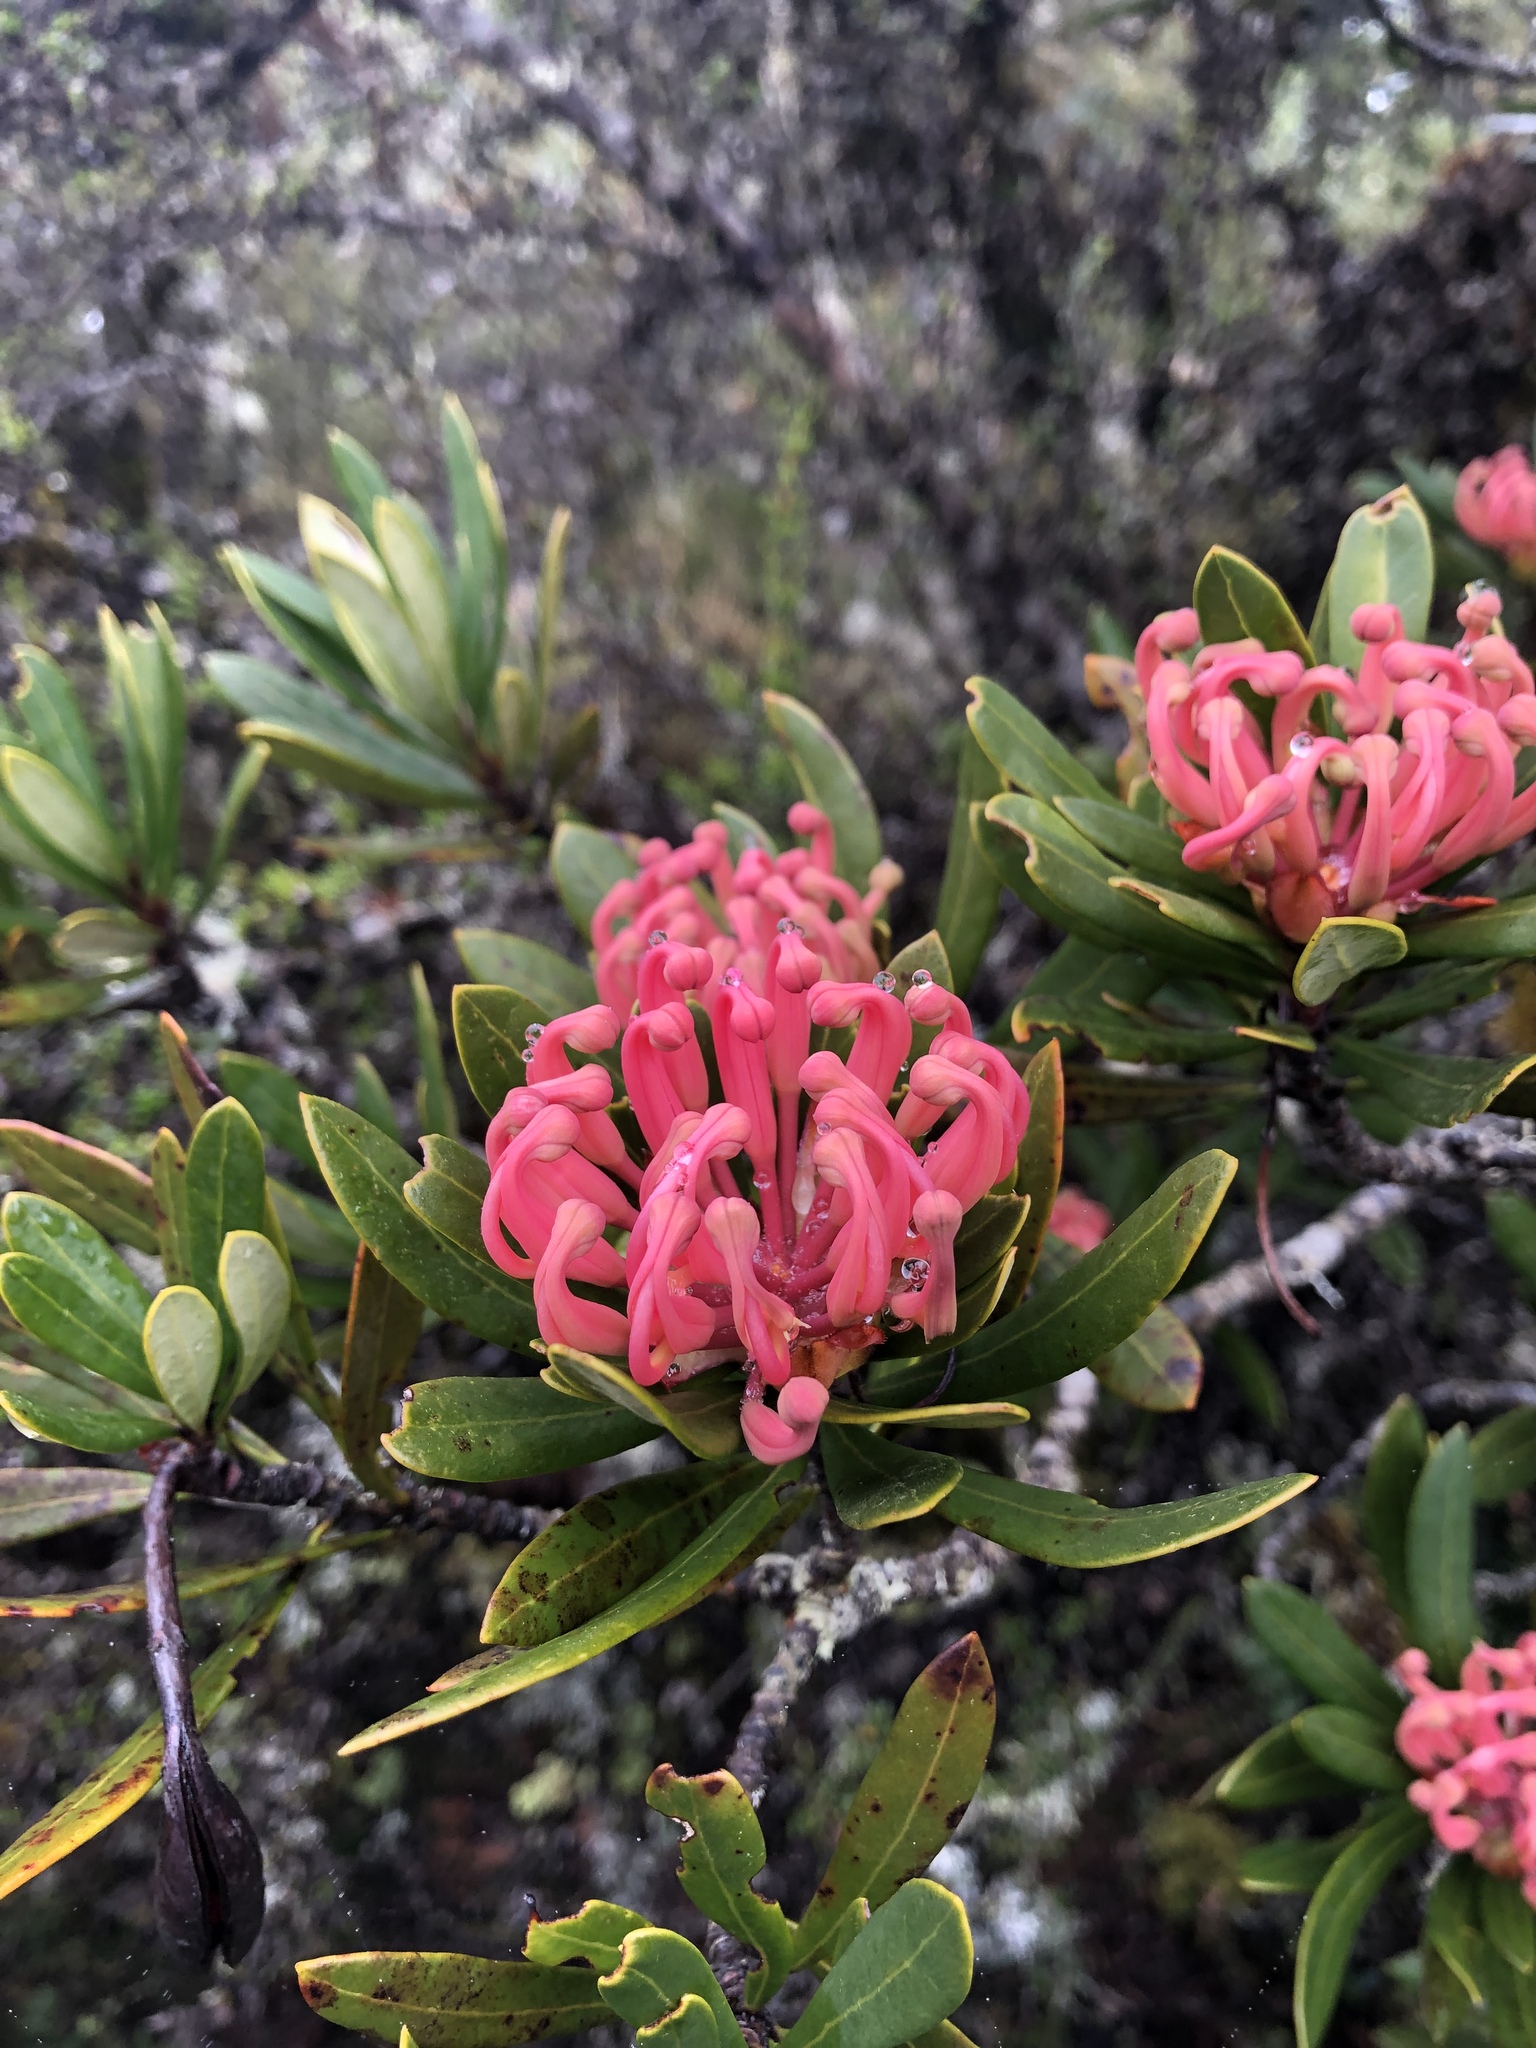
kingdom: Plantae
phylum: Tracheophyta
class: Magnoliopsida
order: Proteales
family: Proteaceae
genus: Telopea
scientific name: Telopea truncata
